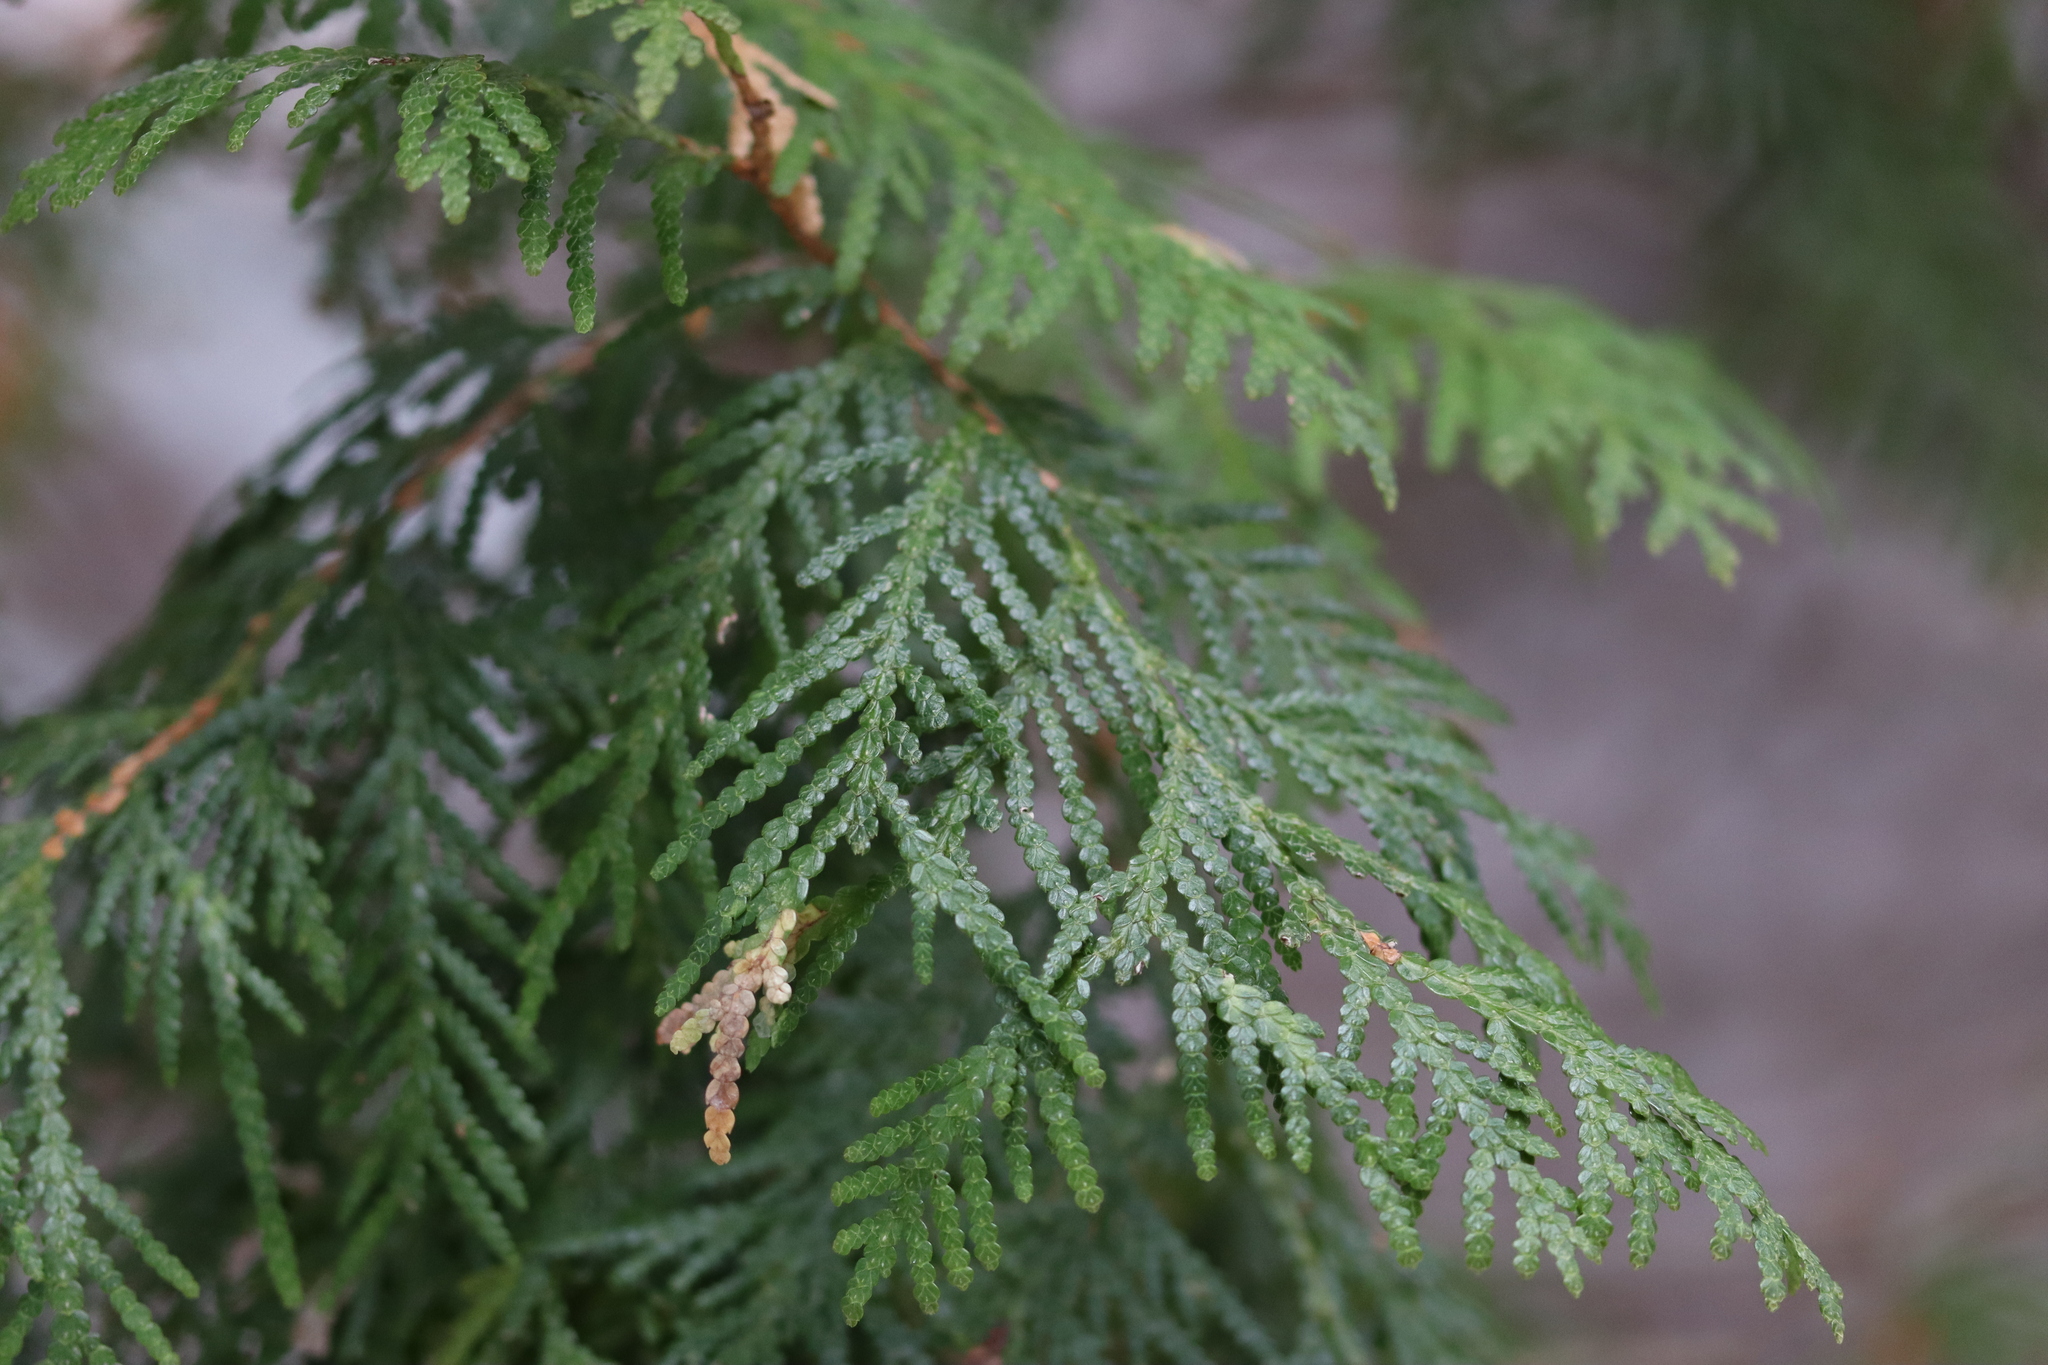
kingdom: Plantae
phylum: Tracheophyta
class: Pinopsida
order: Pinales
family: Cupressaceae
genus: Thuja
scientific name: Thuja occidentalis
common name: Northern white-cedar
